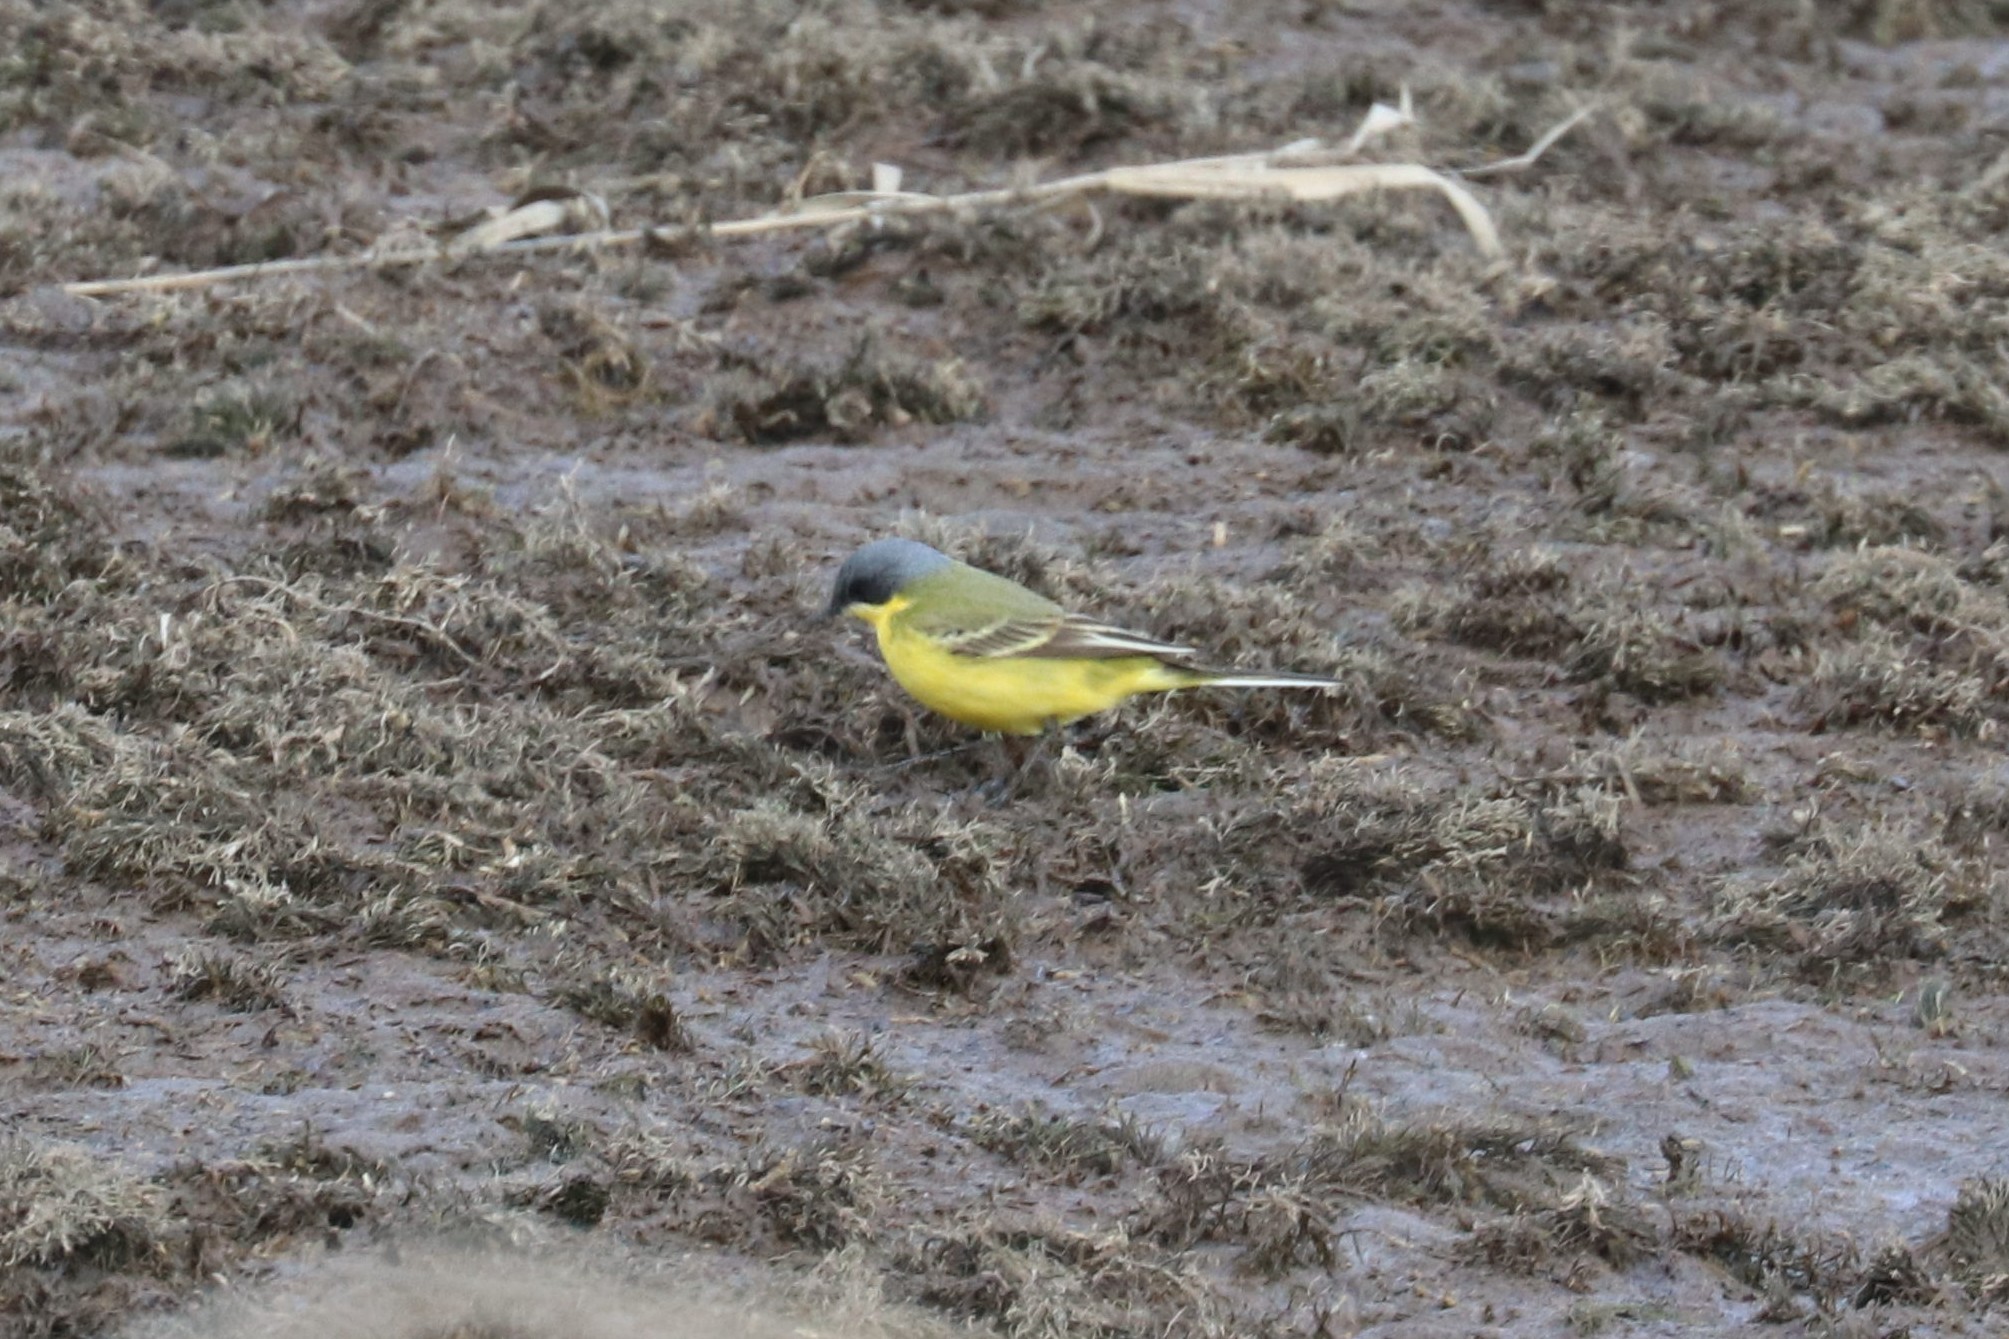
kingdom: Animalia
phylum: Chordata
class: Aves
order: Passeriformes
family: Motacillidae
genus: Motacilla
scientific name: Motacilla flava
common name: Western yellow wagtail
